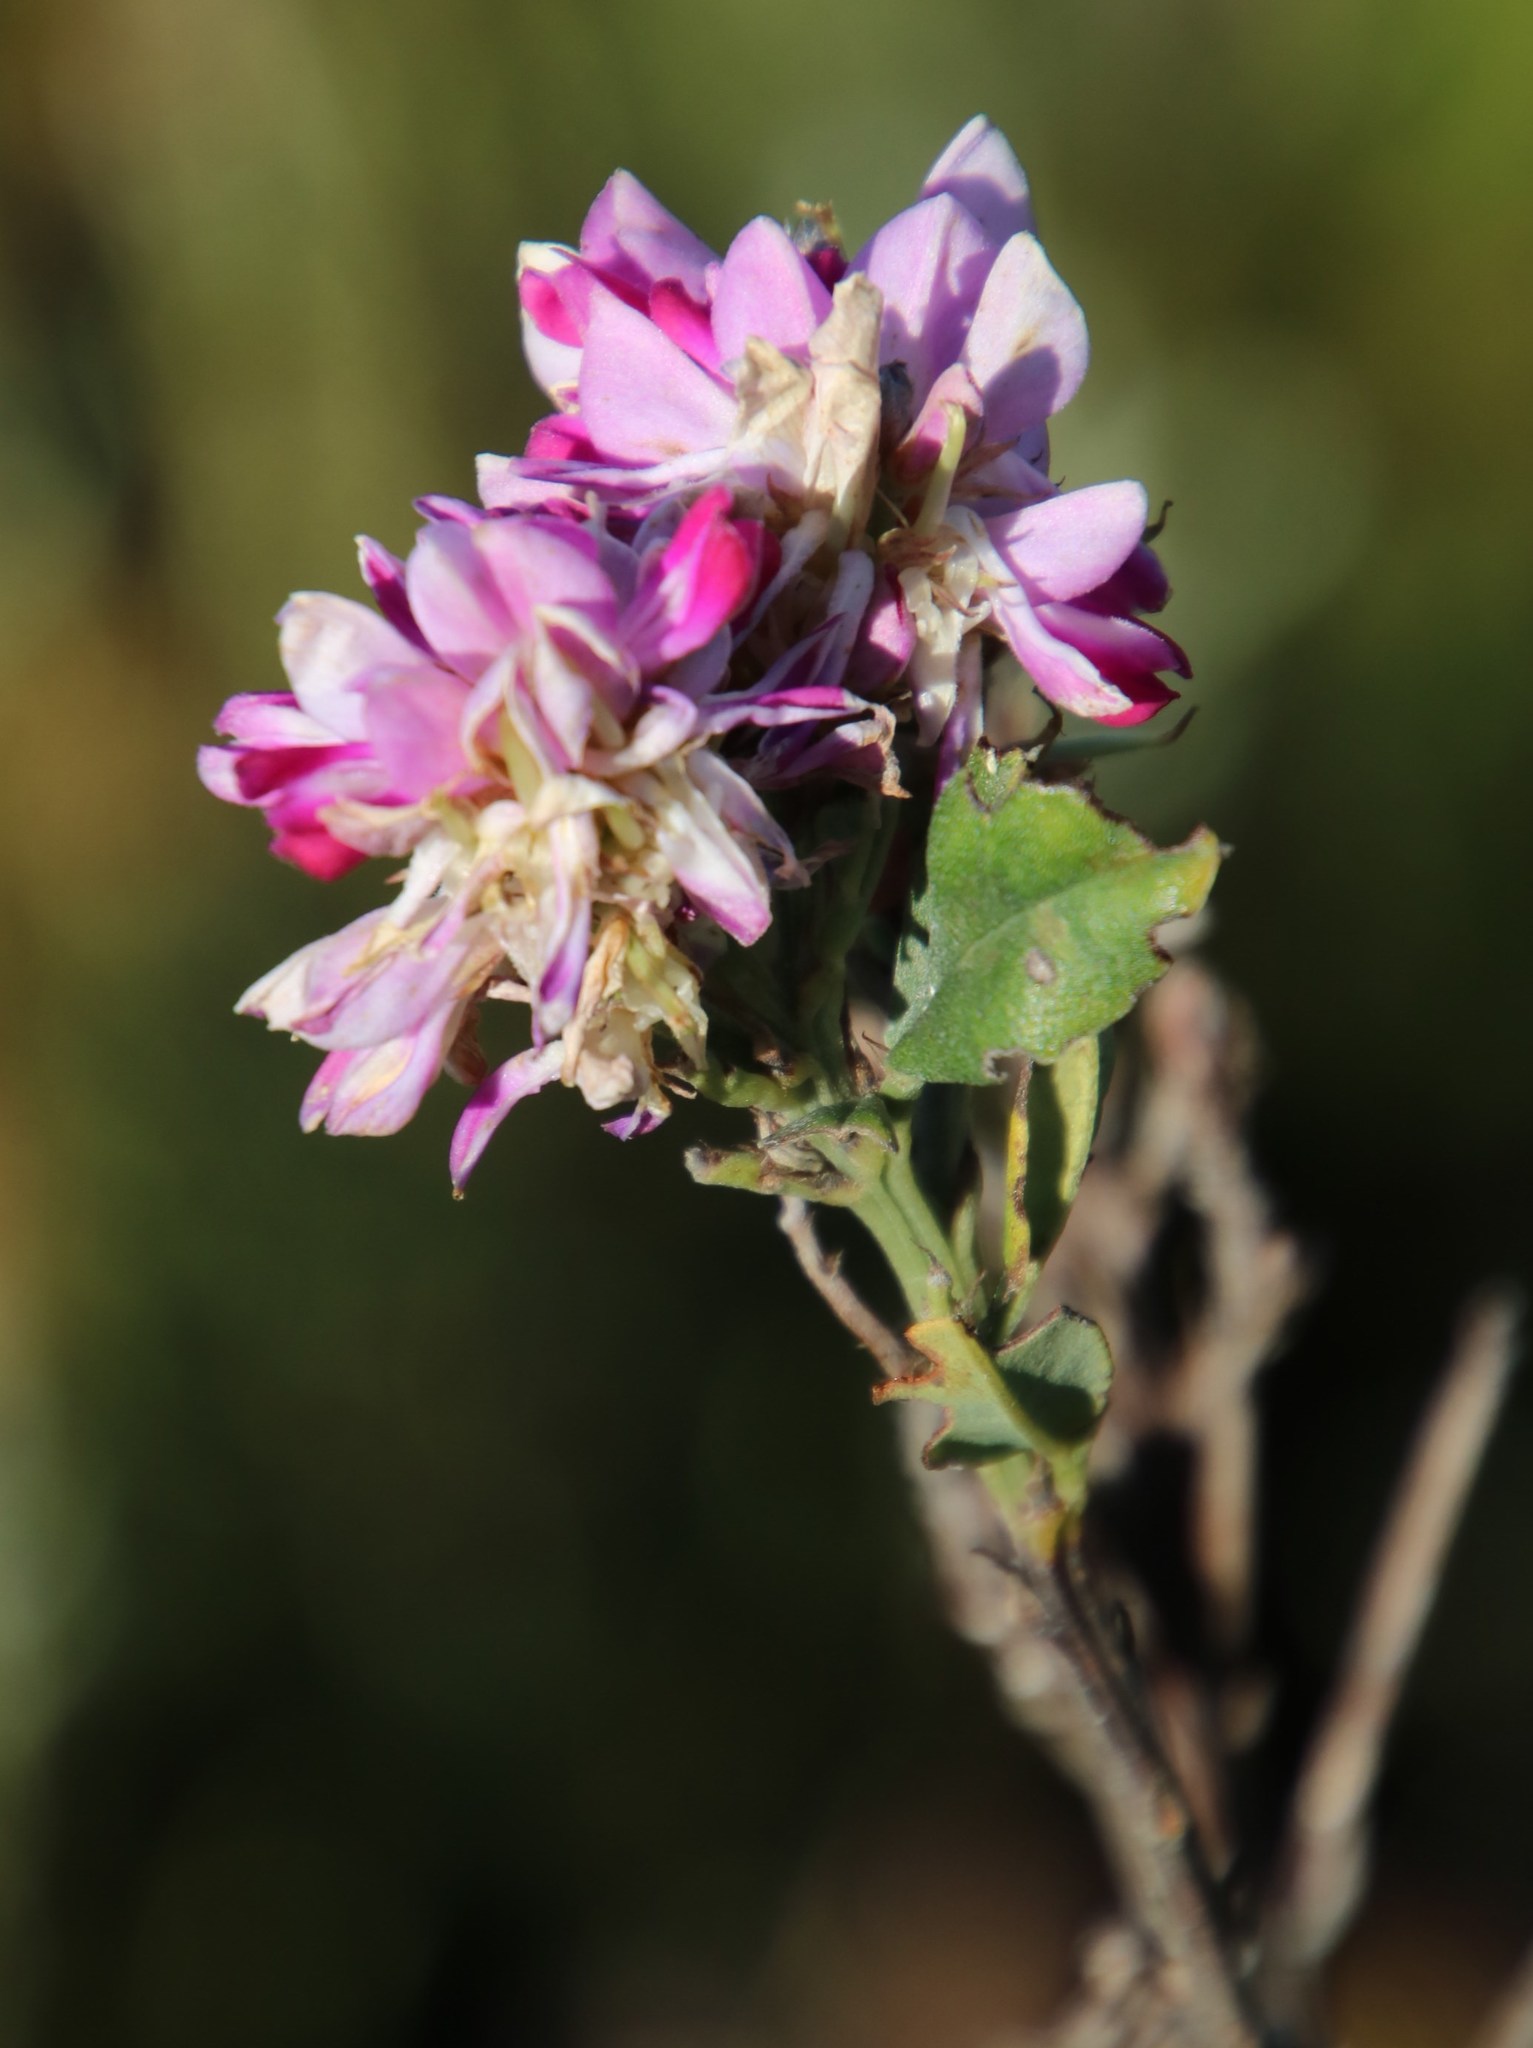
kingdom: Plantae
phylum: Tracheophyta
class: Magnoliopsida
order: Fabales
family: Fabaceae
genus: Indigofera
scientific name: Indigofera cytisoides
